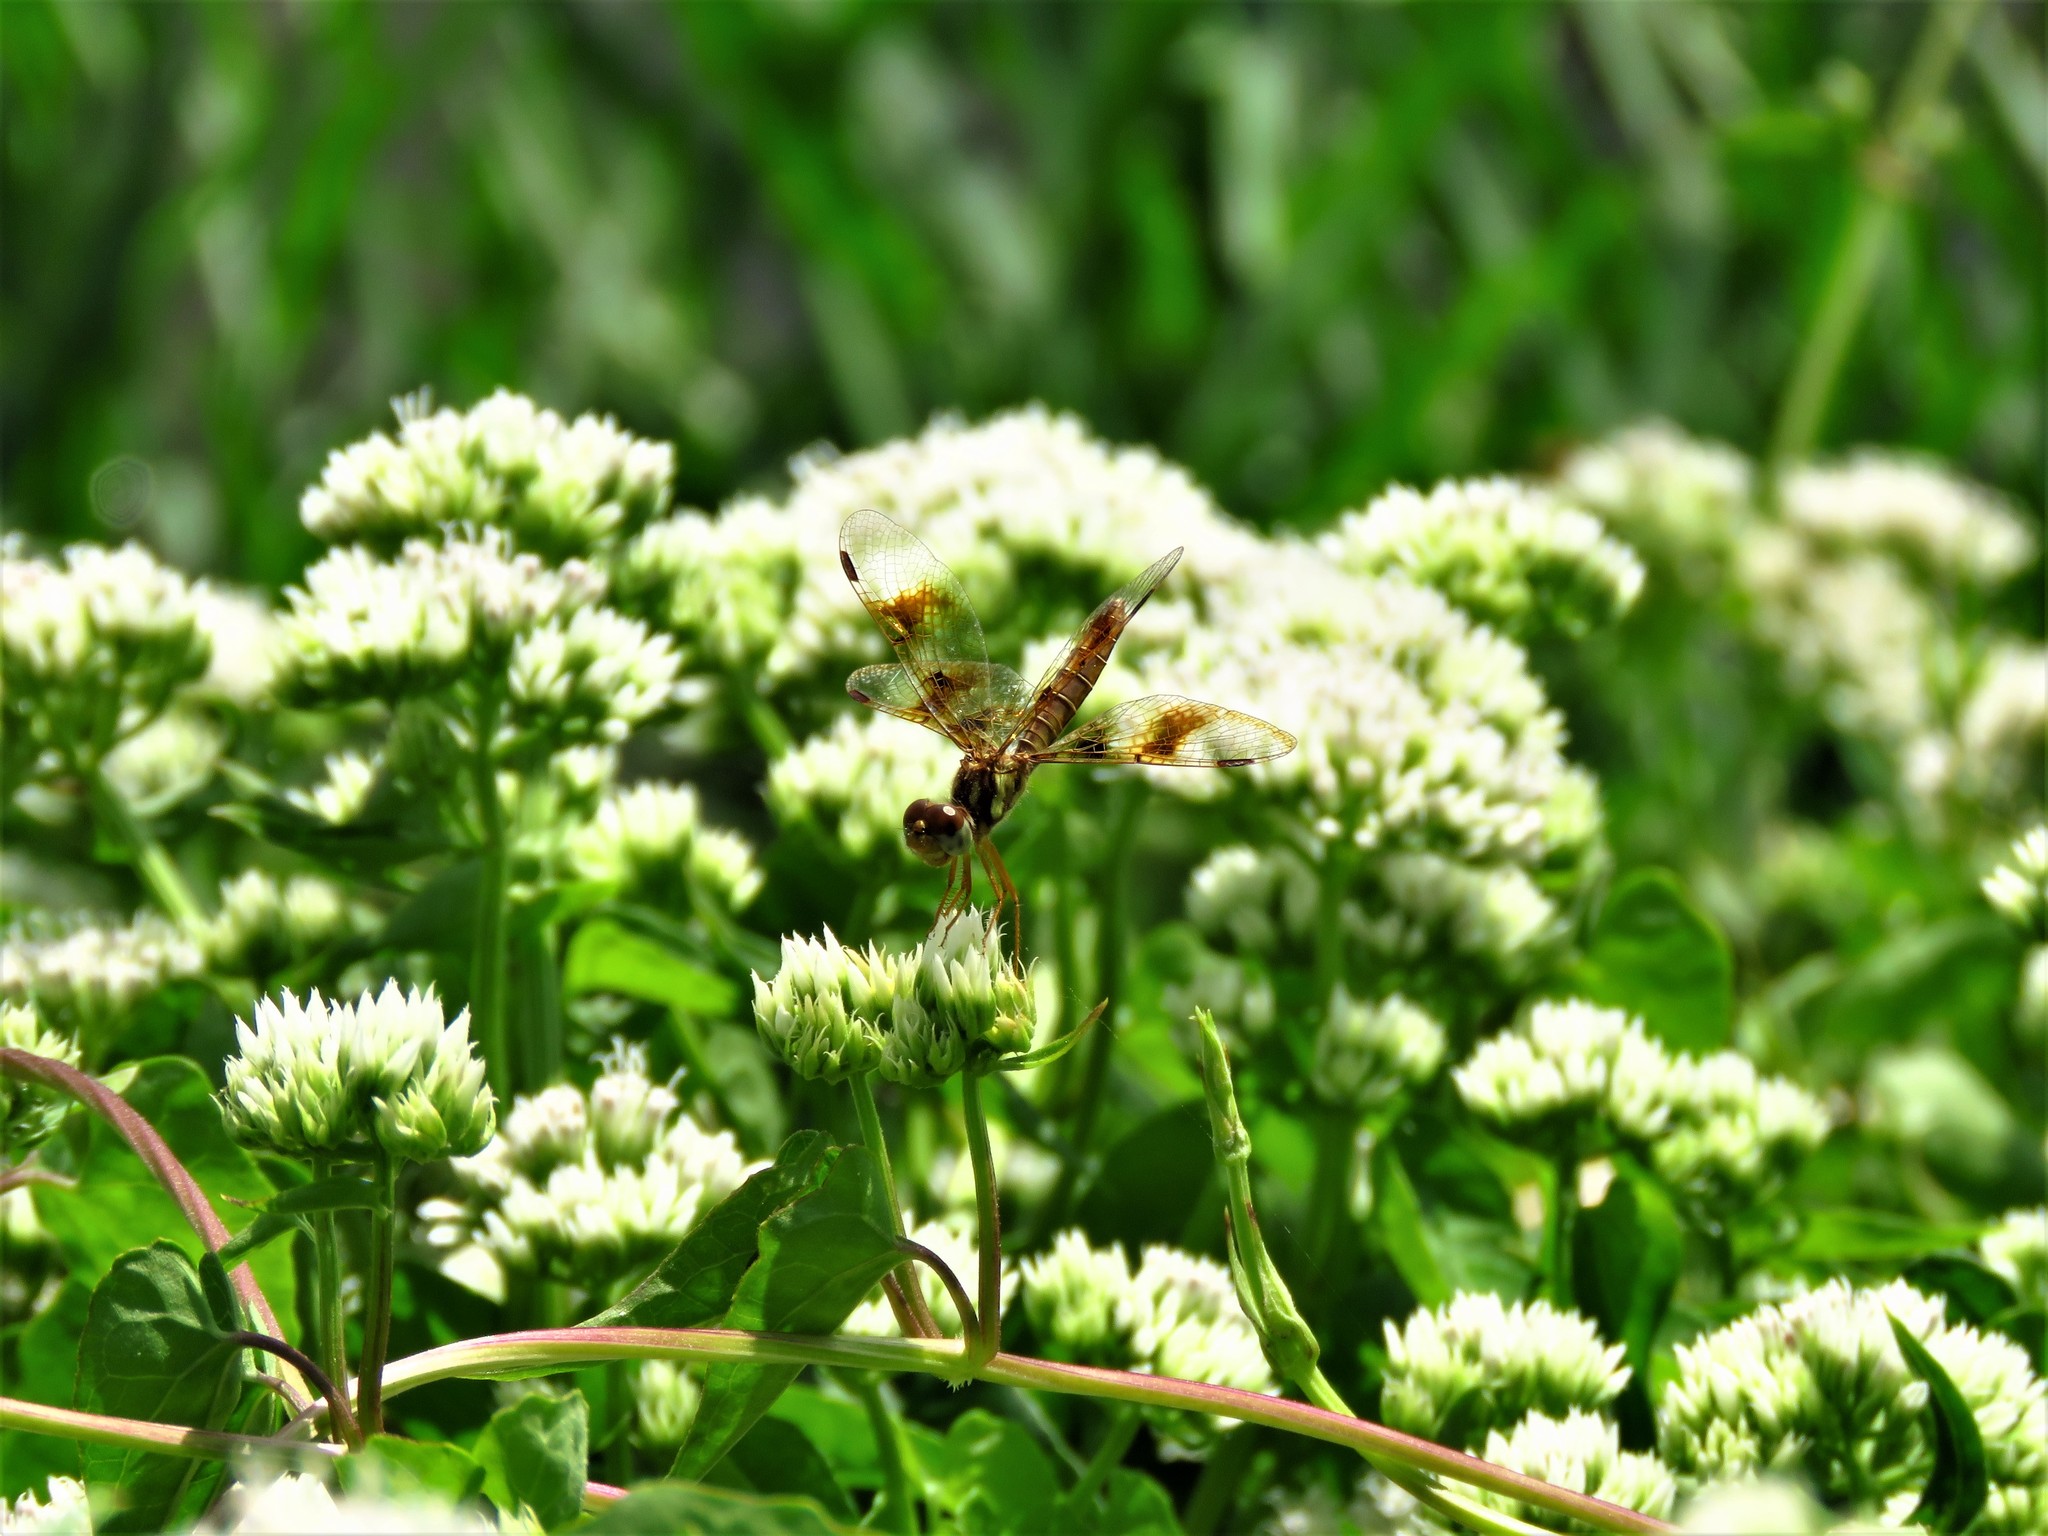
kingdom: Plantae
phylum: Tracheophyta
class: Magnoliopsida
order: Asterales
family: Asteraceae
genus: Mikania
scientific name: Mikania scandens
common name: Climbing hempvine
